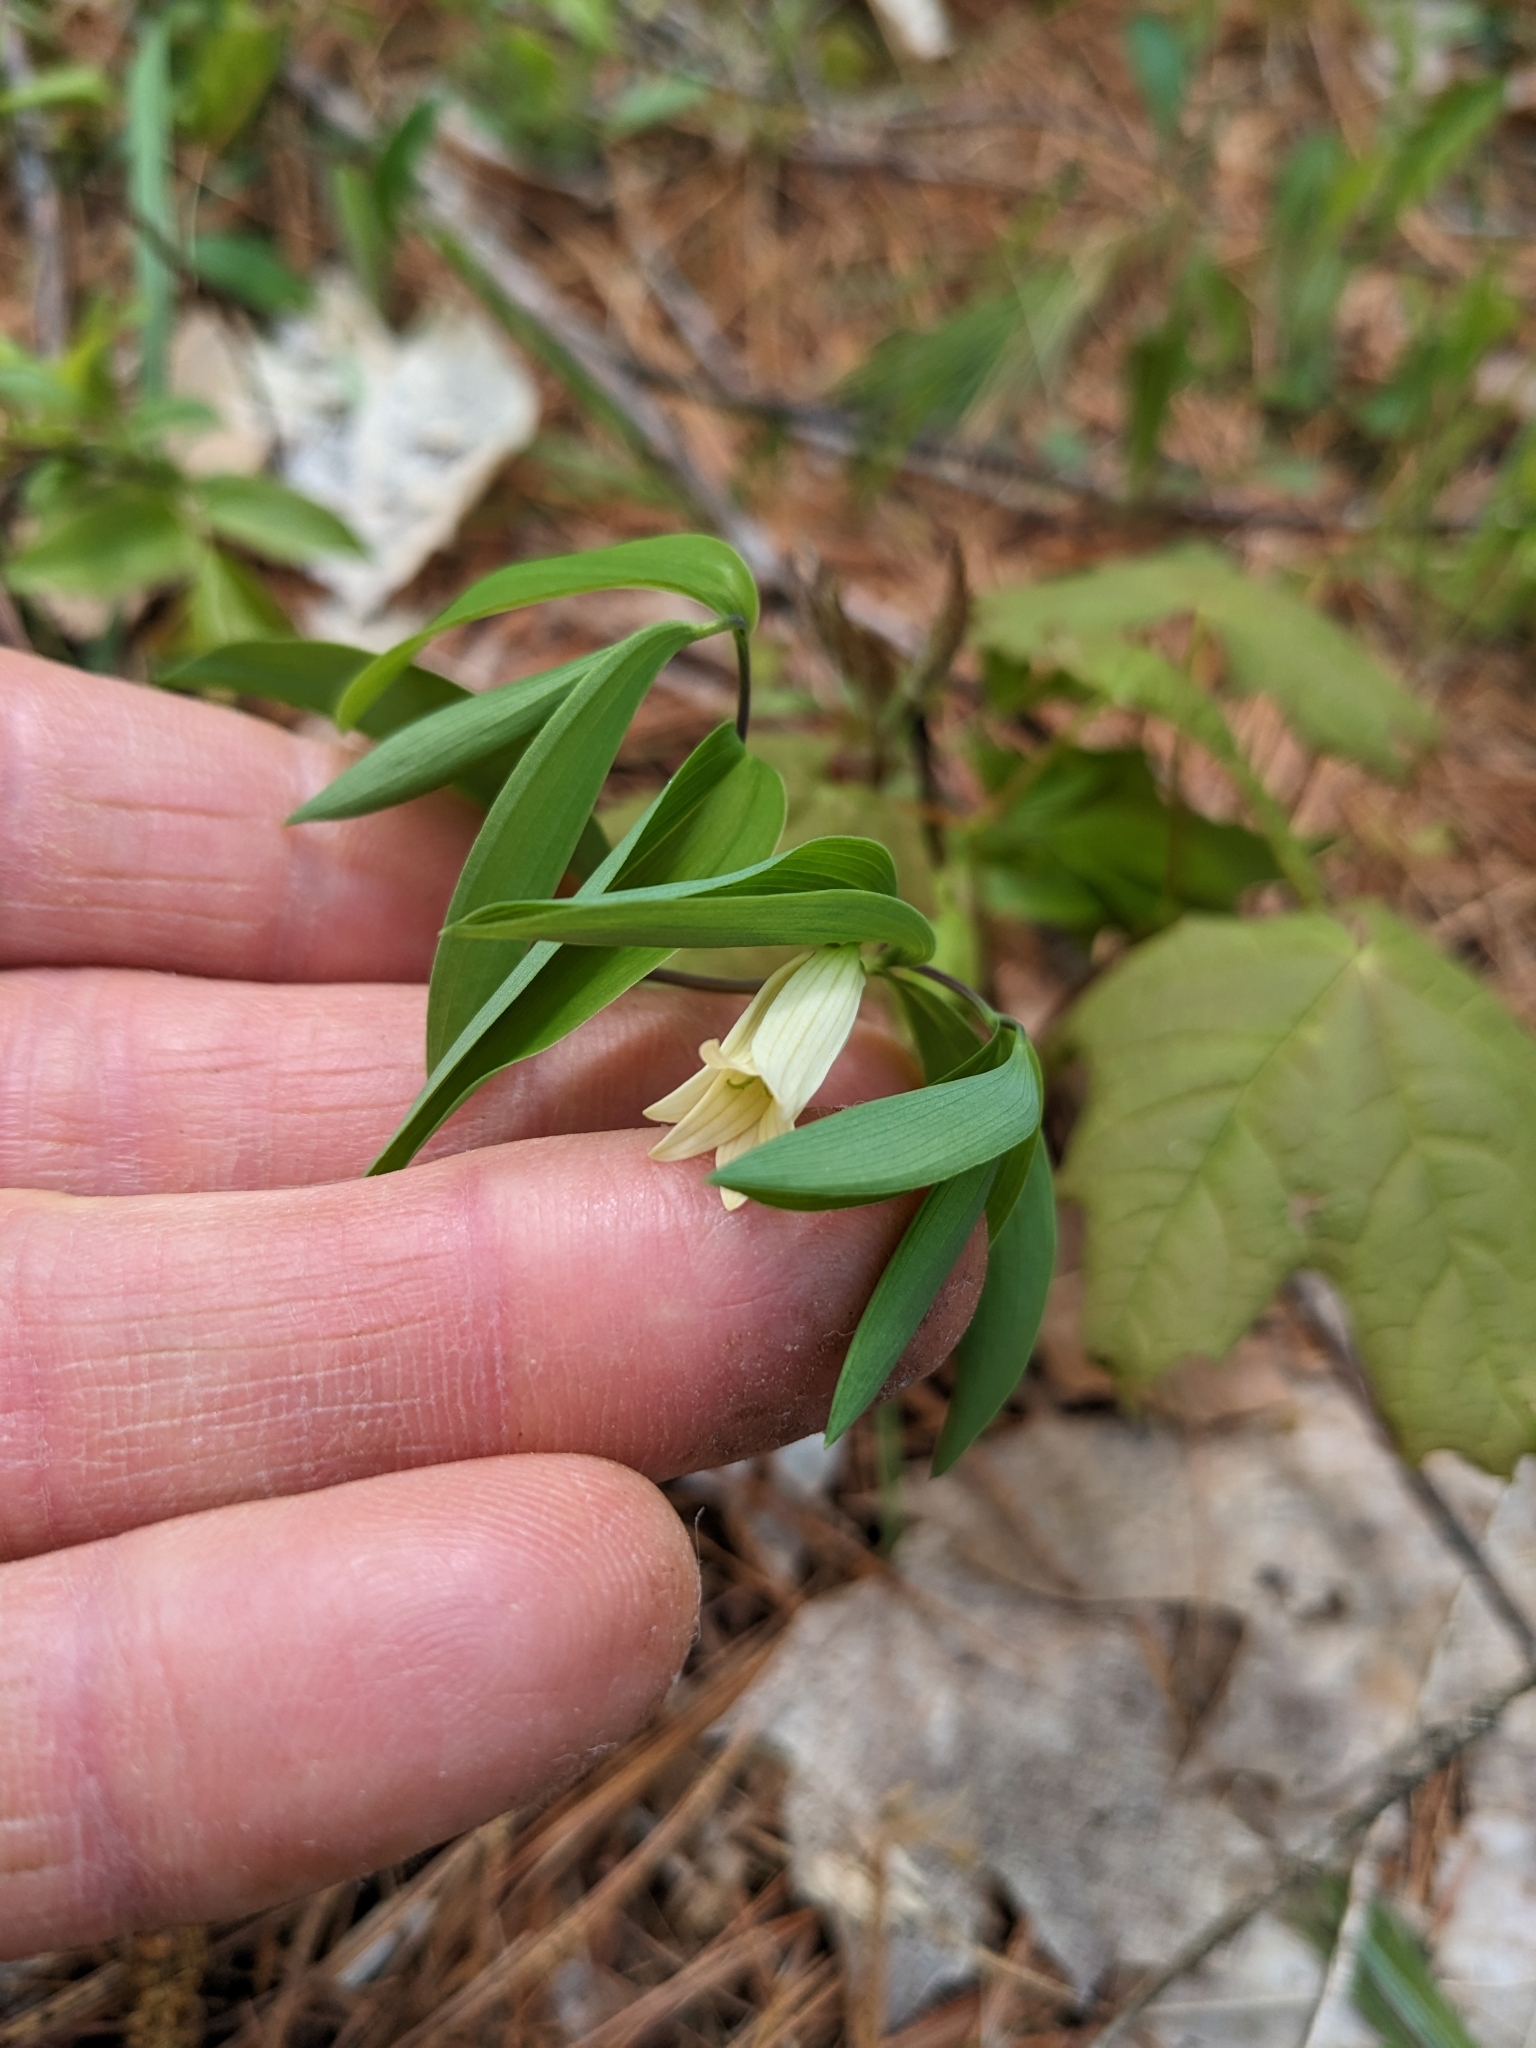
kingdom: Plantae
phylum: Tracheophyta
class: Liliopsida
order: Liliales
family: Colchicaceae
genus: Uvularia
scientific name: Uvularia sessilifolia
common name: Straw-lily
